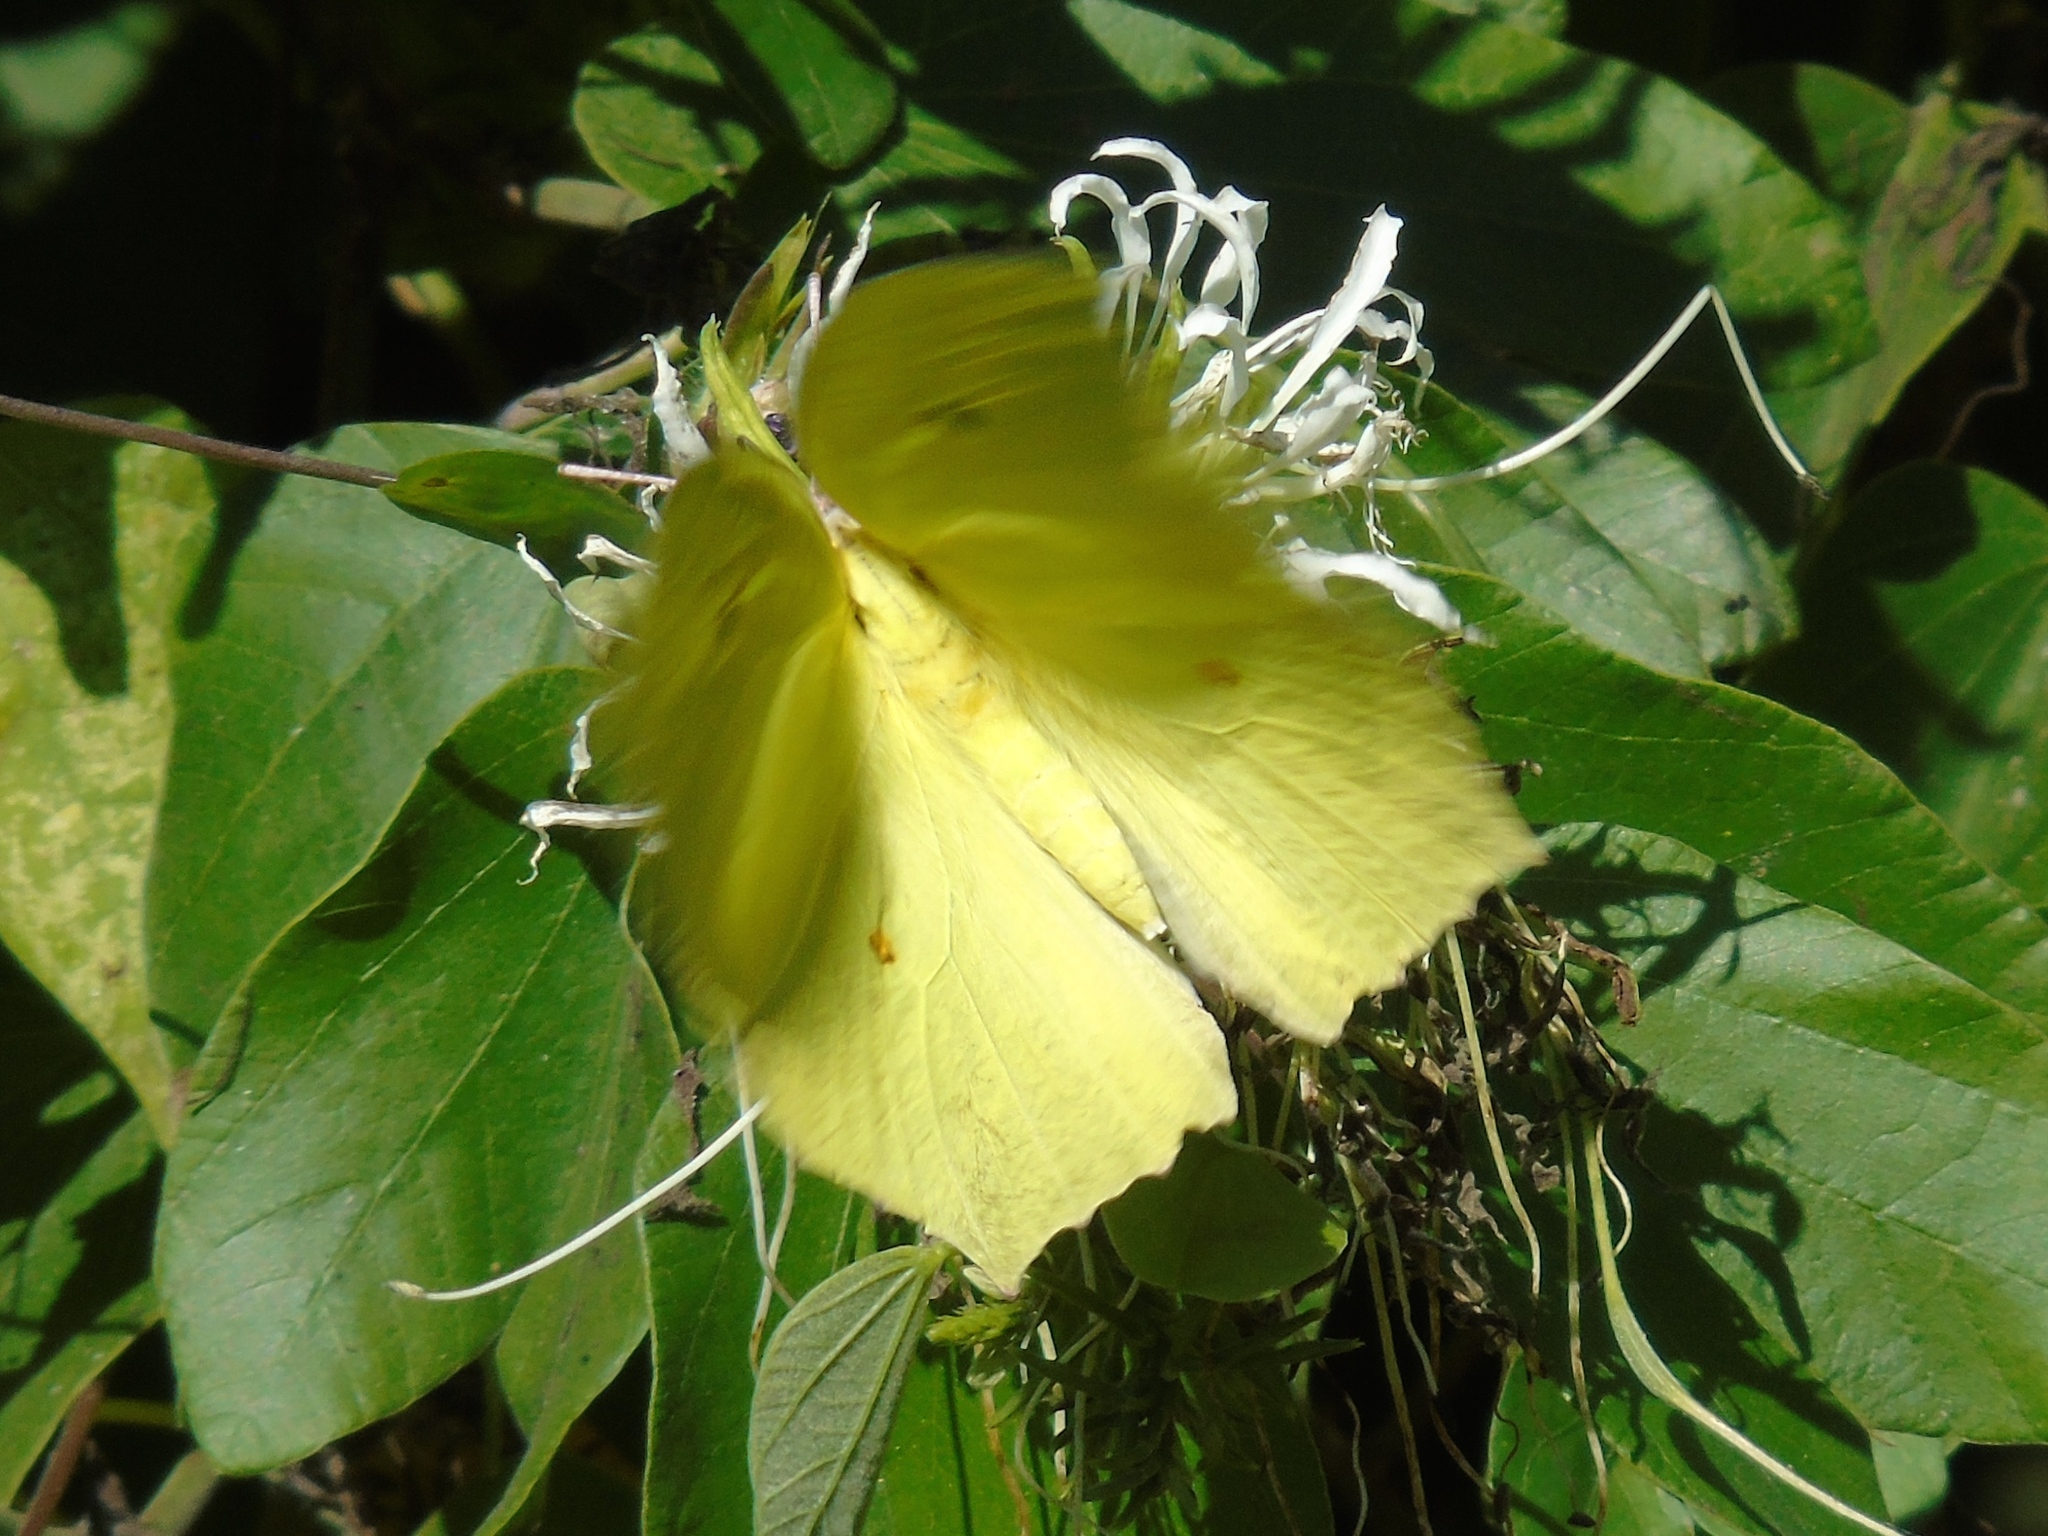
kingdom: Animalia
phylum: Arthropoda
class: Insecta
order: Lepidoptera
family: Pieridae
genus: Anteos
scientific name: Anteos maerula
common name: Angled sulphur
